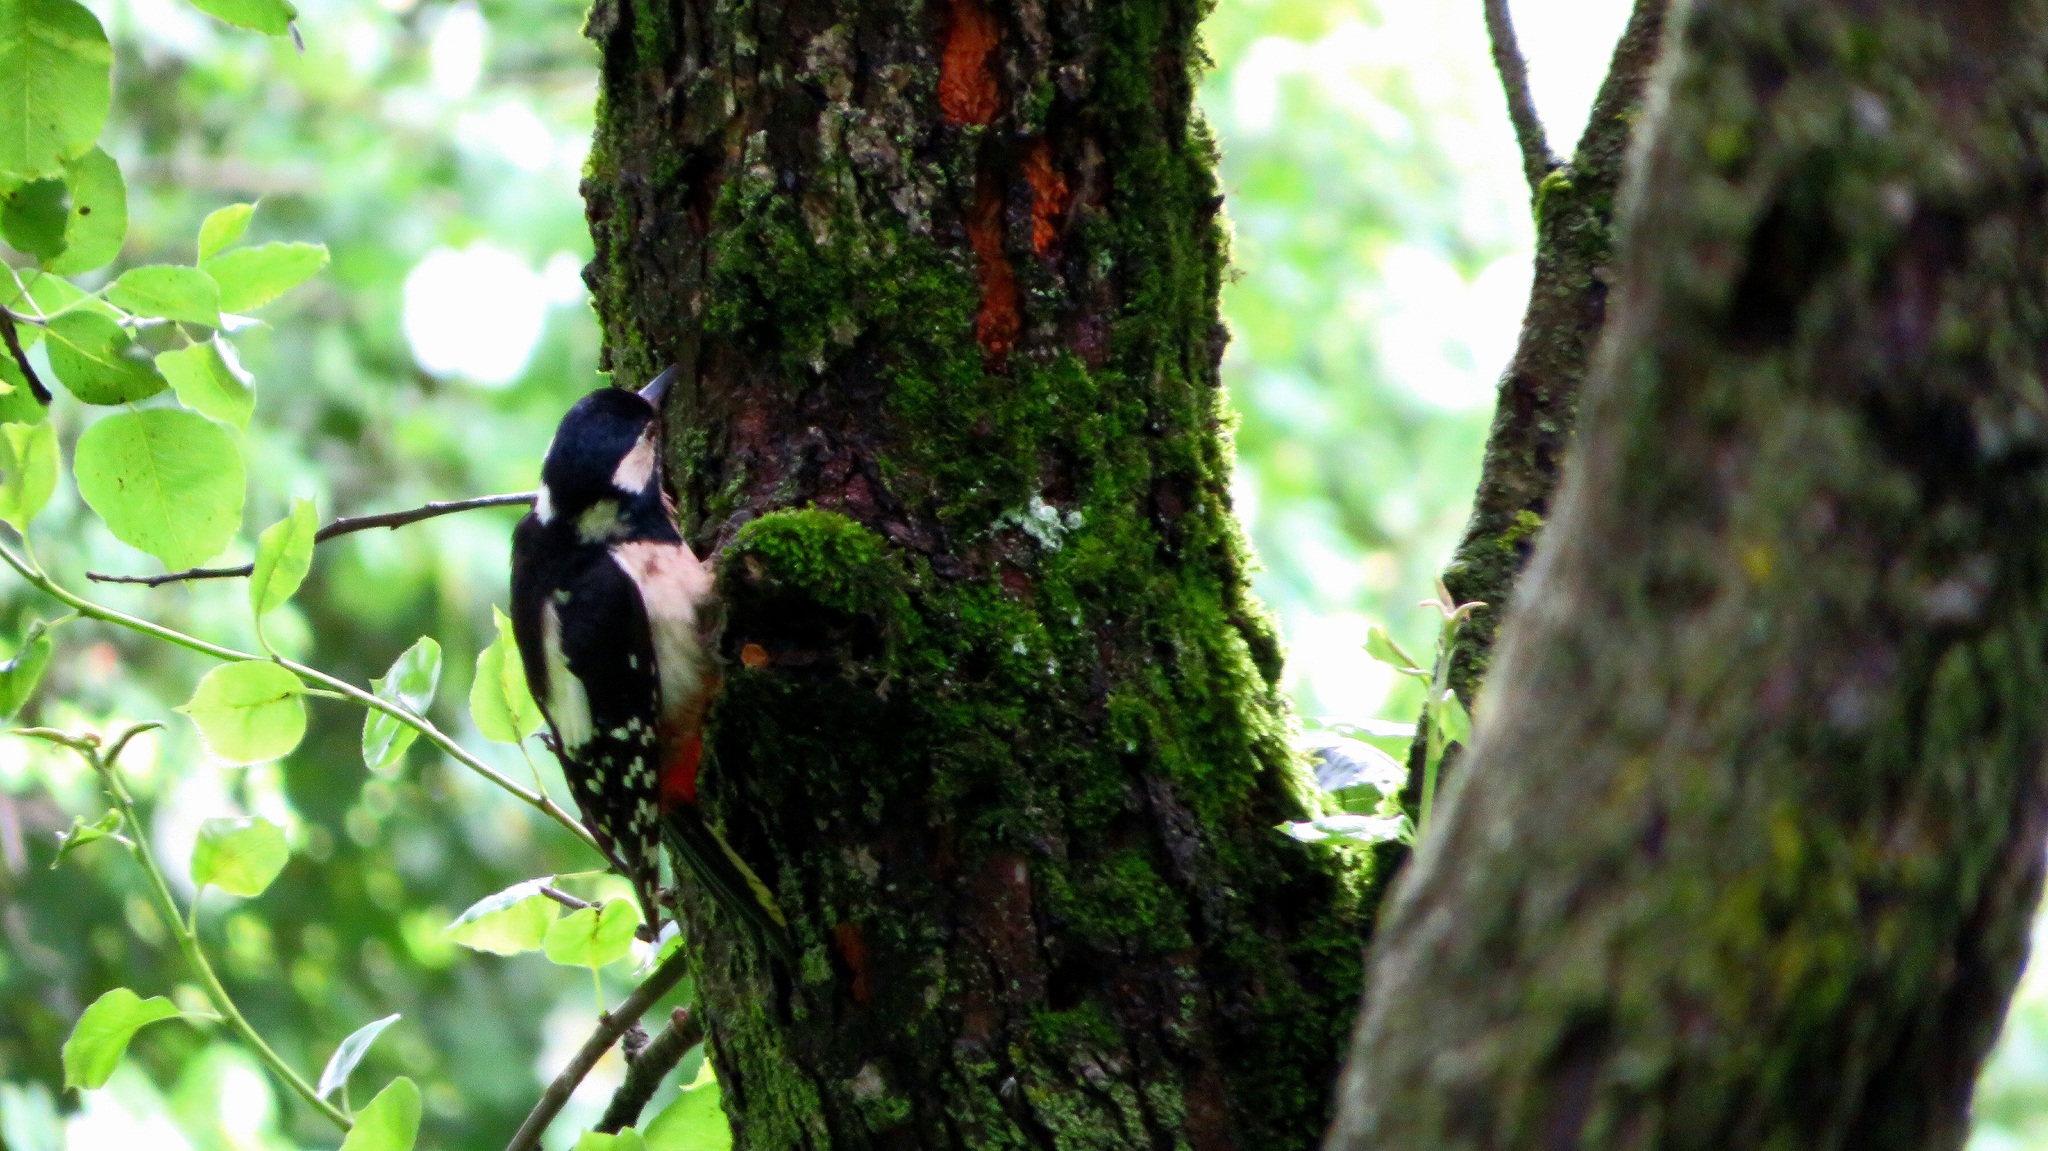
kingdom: Animalia
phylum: Chordata
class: Aves
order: Piciformes
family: Picidae
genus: Dendrocopos
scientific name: Dendrocopos major
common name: Great spotted woodpecker
